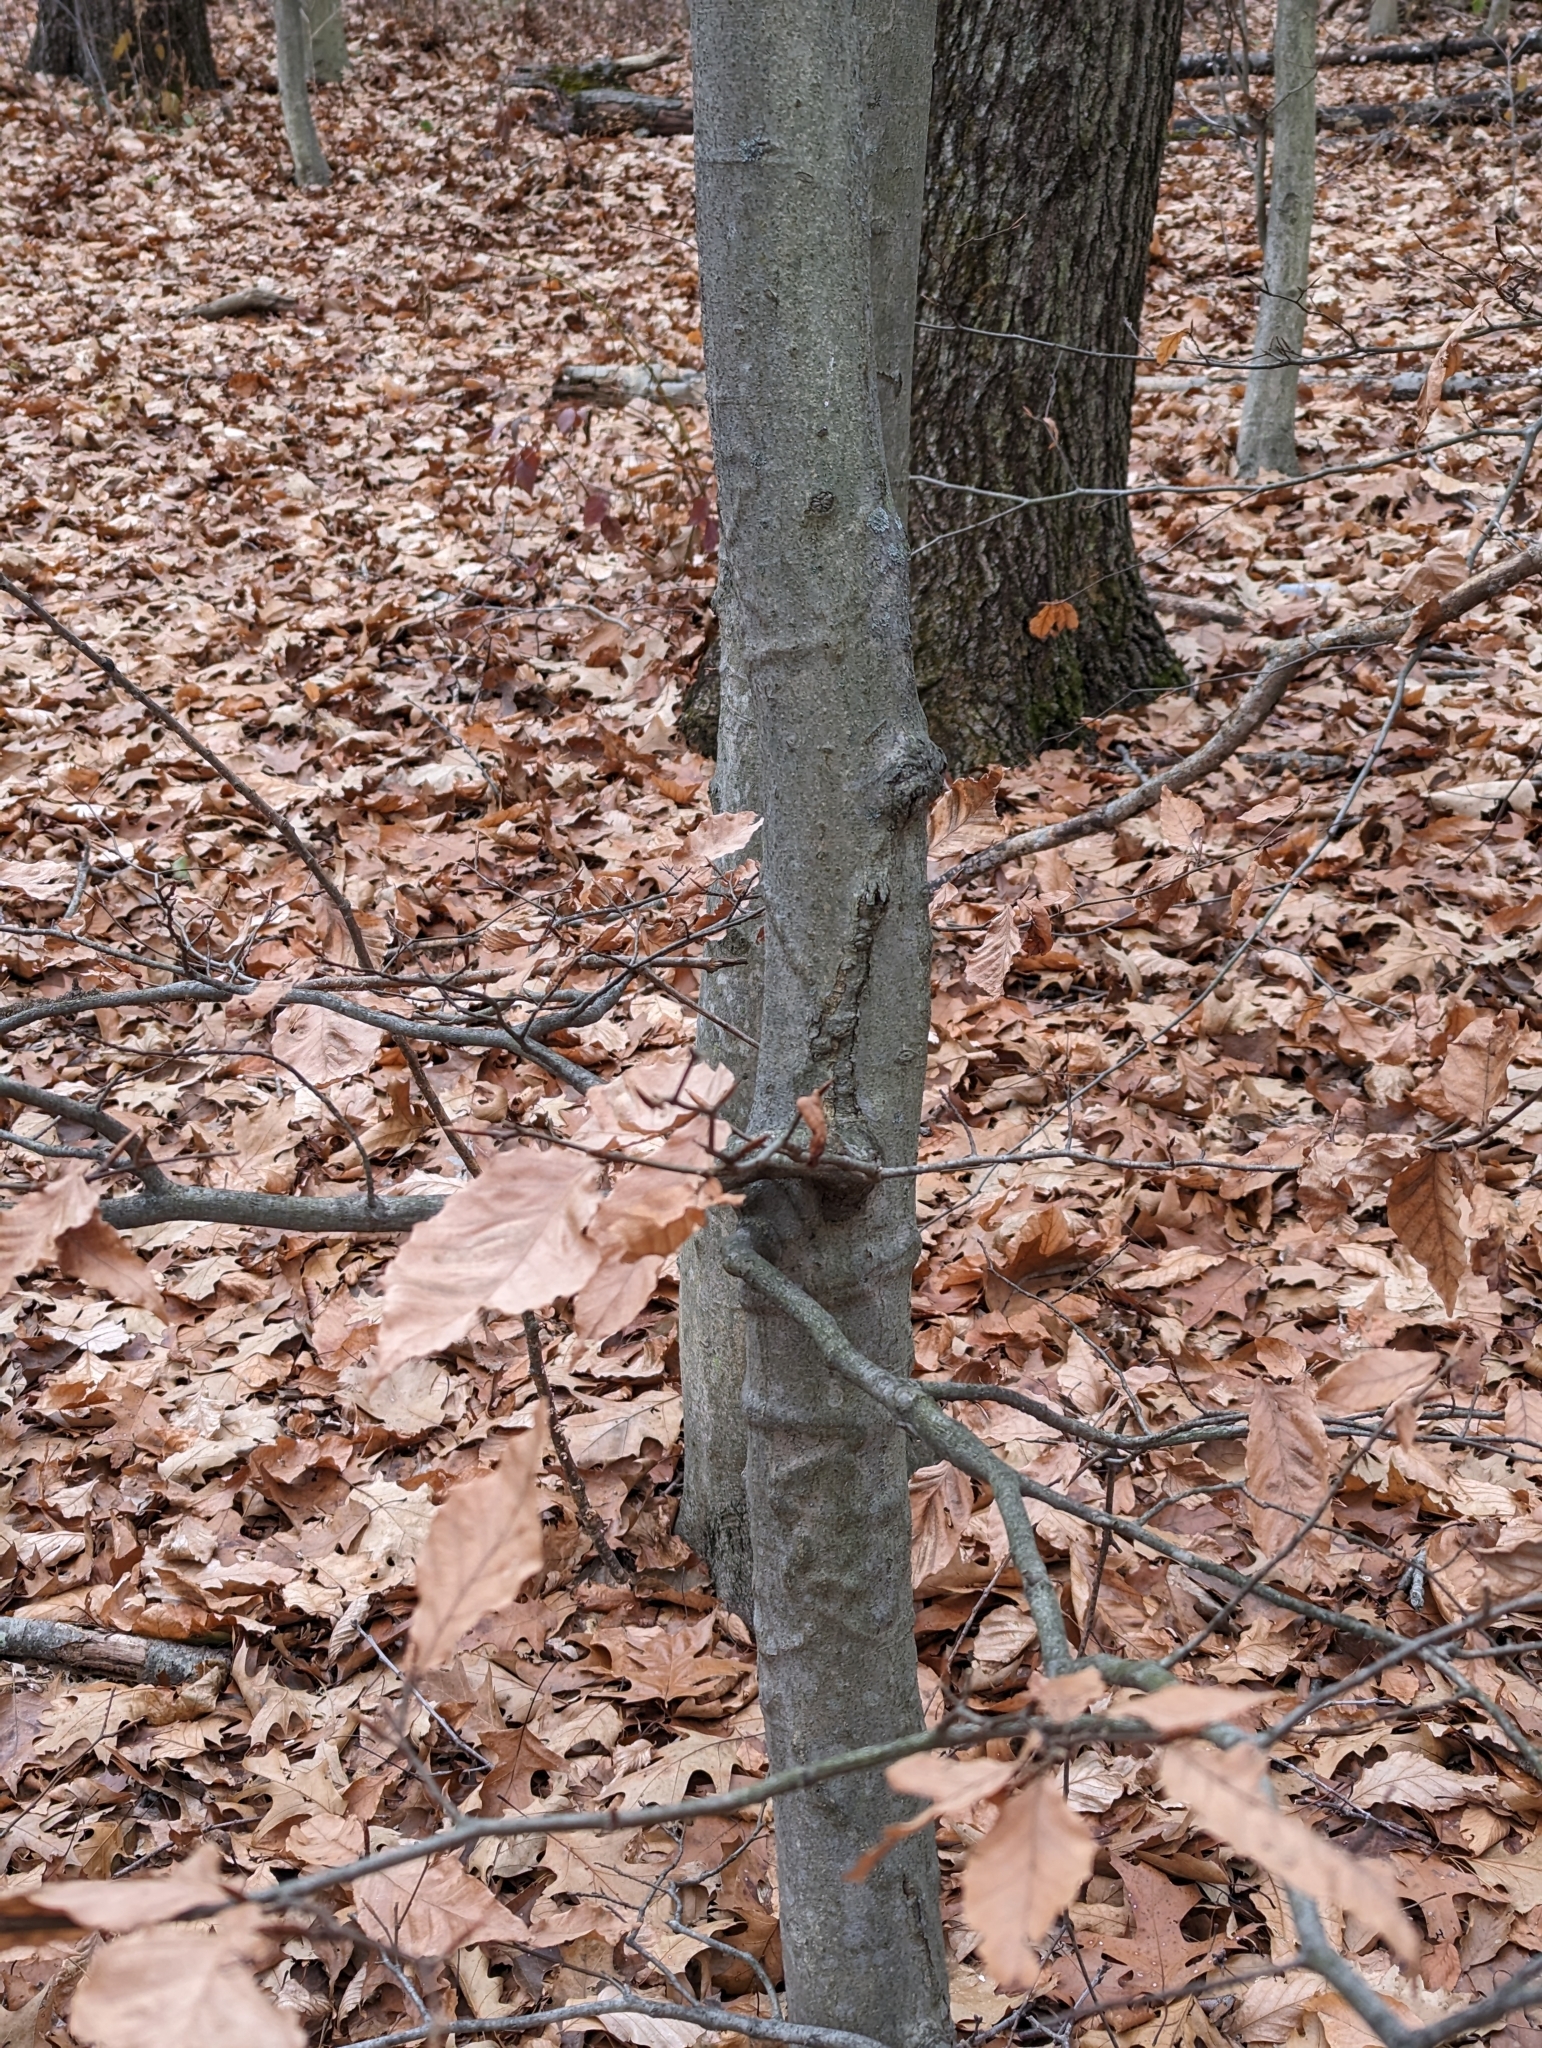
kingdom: Plantae
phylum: Tracheophyta
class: Magnoliopsida
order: Fagales
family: Fagaceae
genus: Fagus
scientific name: Fagus grandifolia
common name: American beech
